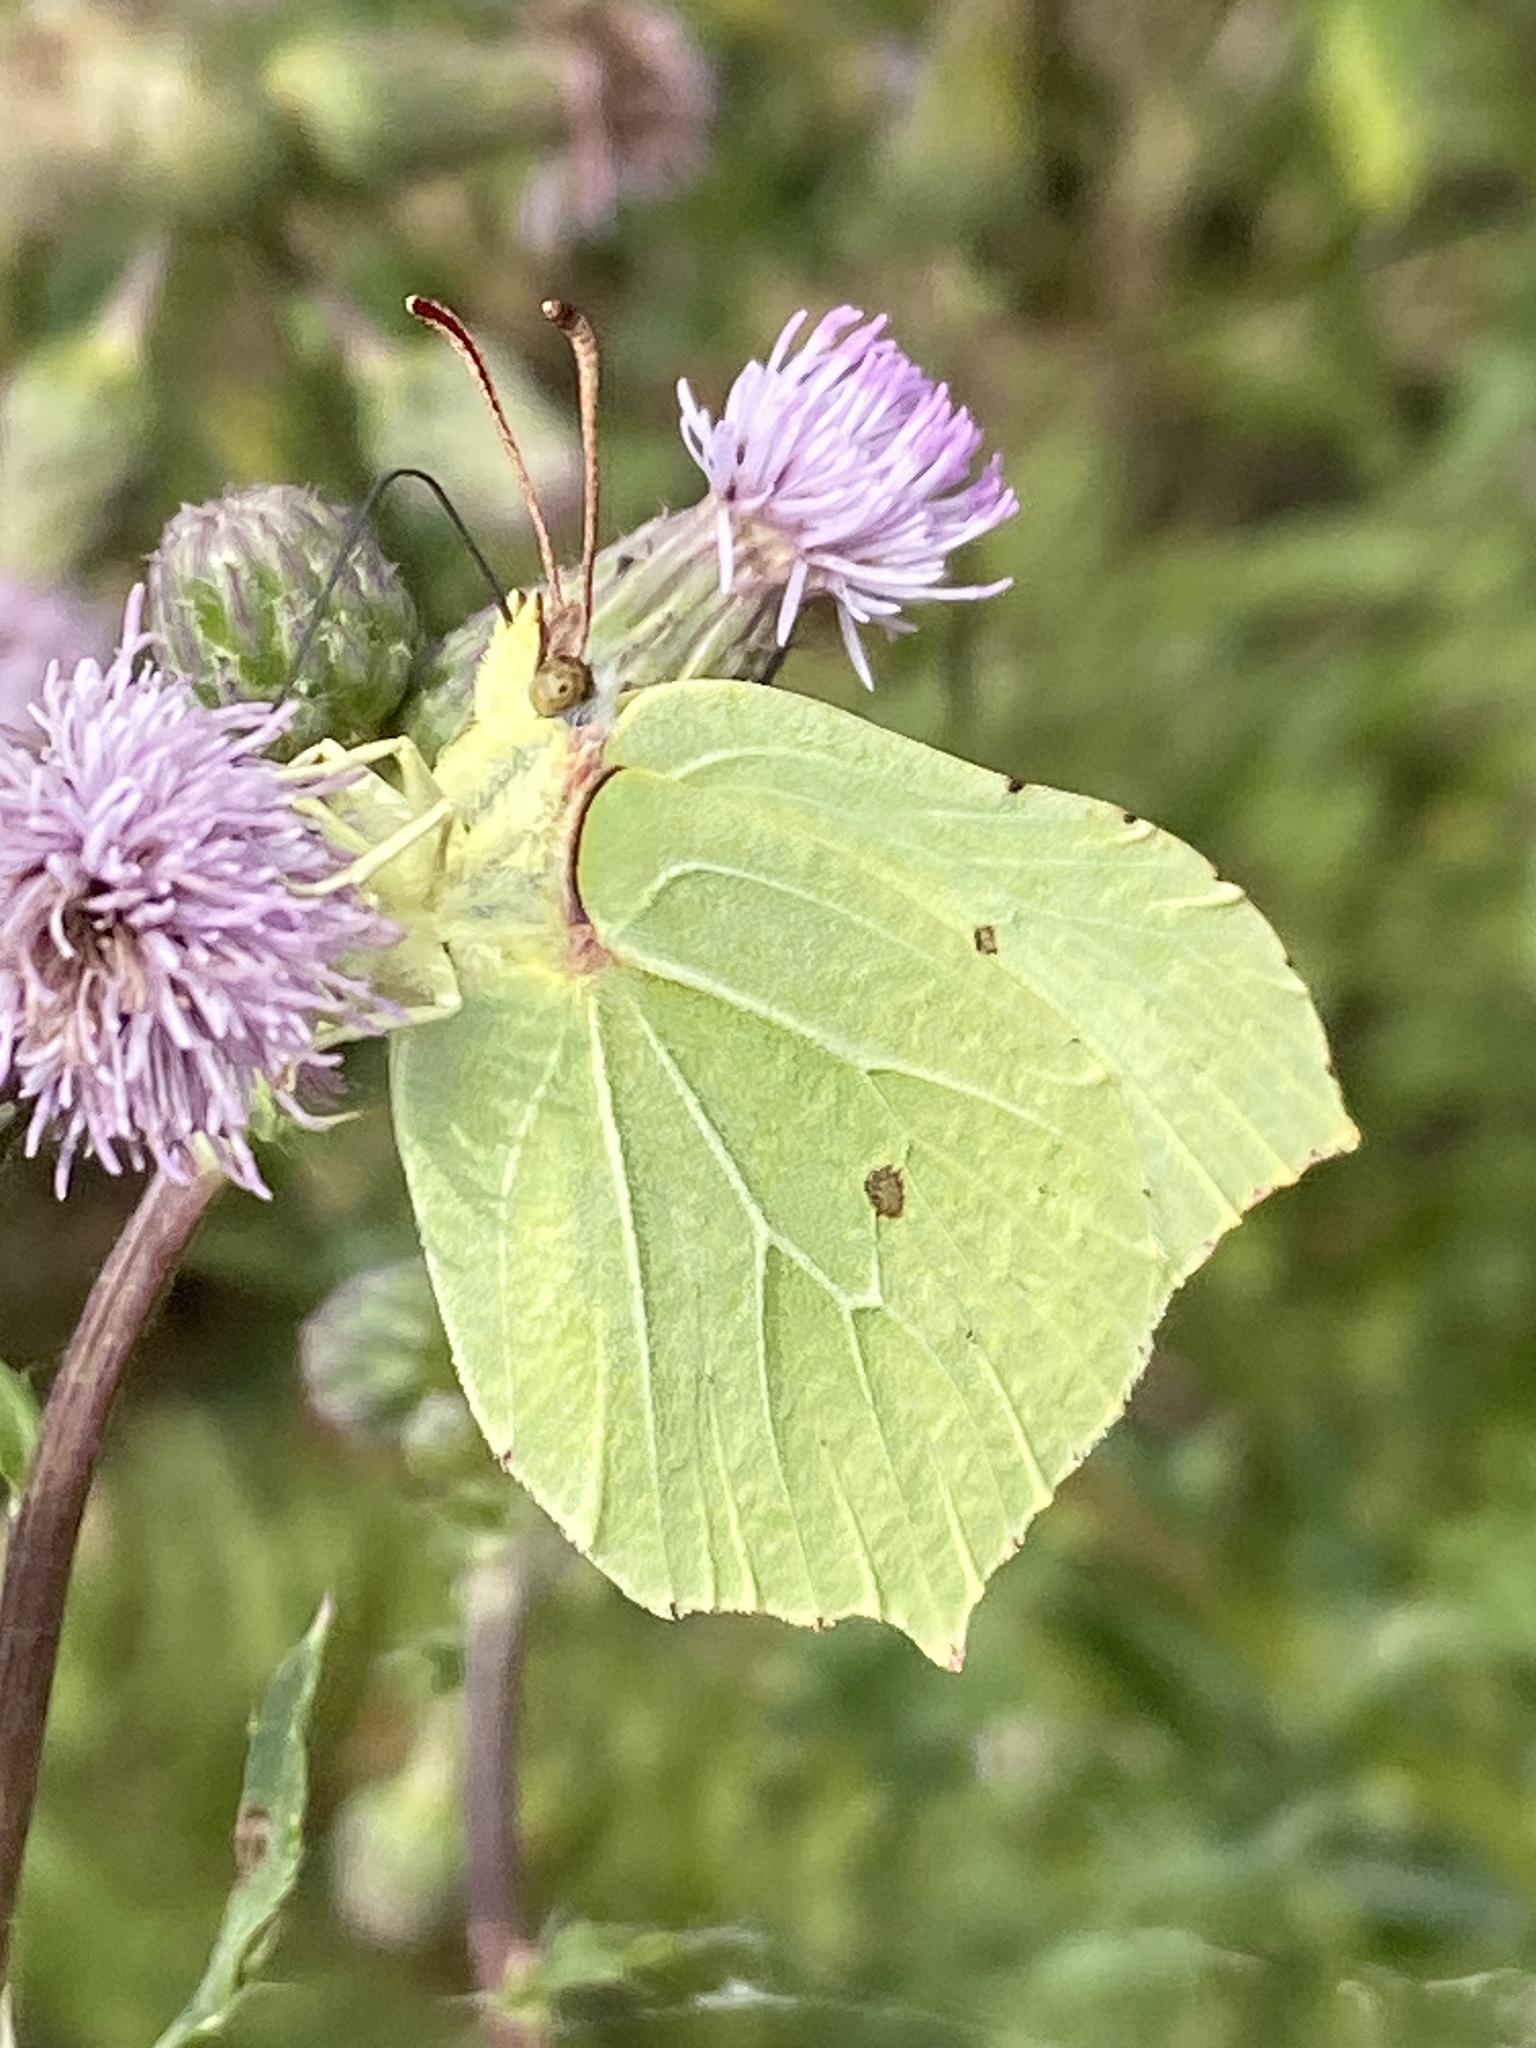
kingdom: Animalia
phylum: Arthropoda
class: Insecta
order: Lepidoptera
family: Pieridae
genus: Gonepteryx
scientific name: Gonepteryx rhamni
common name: Brimstone
